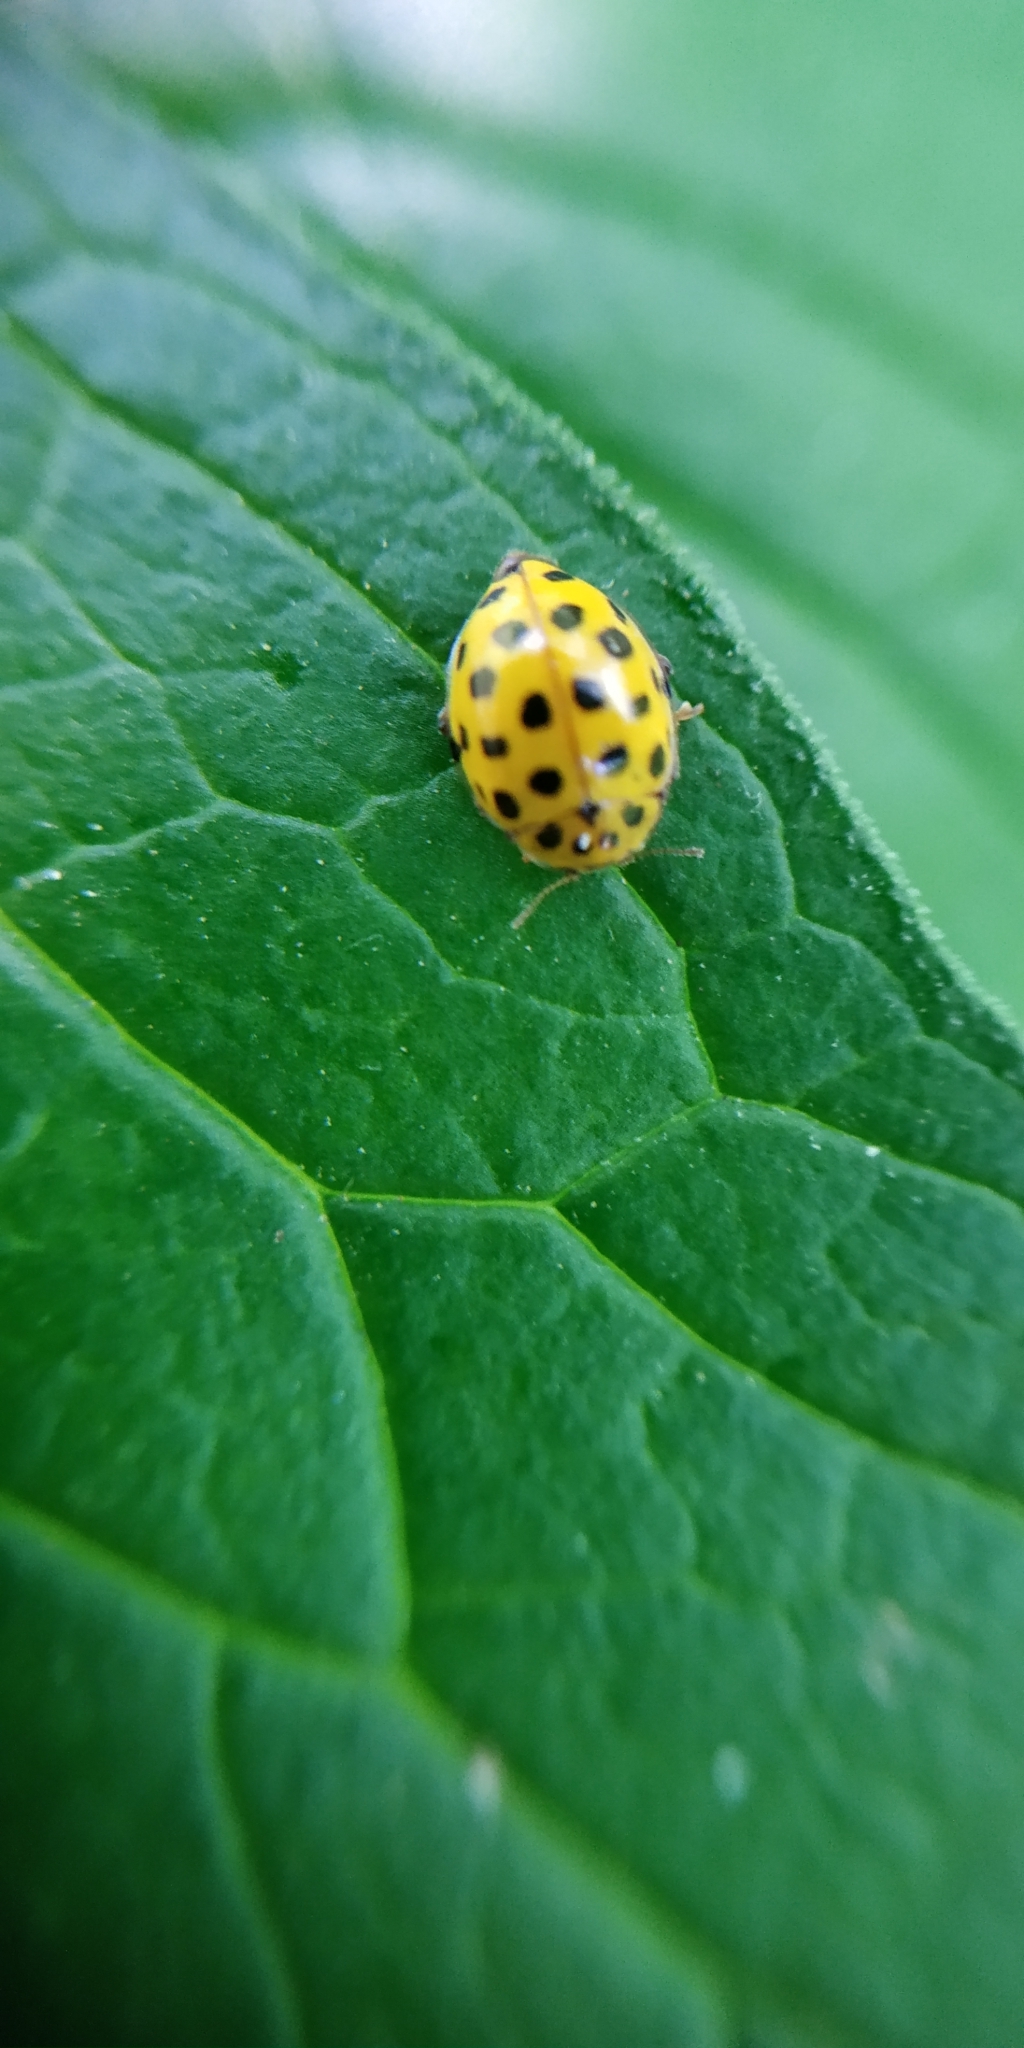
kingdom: Animalia
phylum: Arthropoda
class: Insecta
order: Coleoptera
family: Coccinellidae
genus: Psyllobora
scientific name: Psyllobora vigintiduopunctata
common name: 22-spot ladybird
